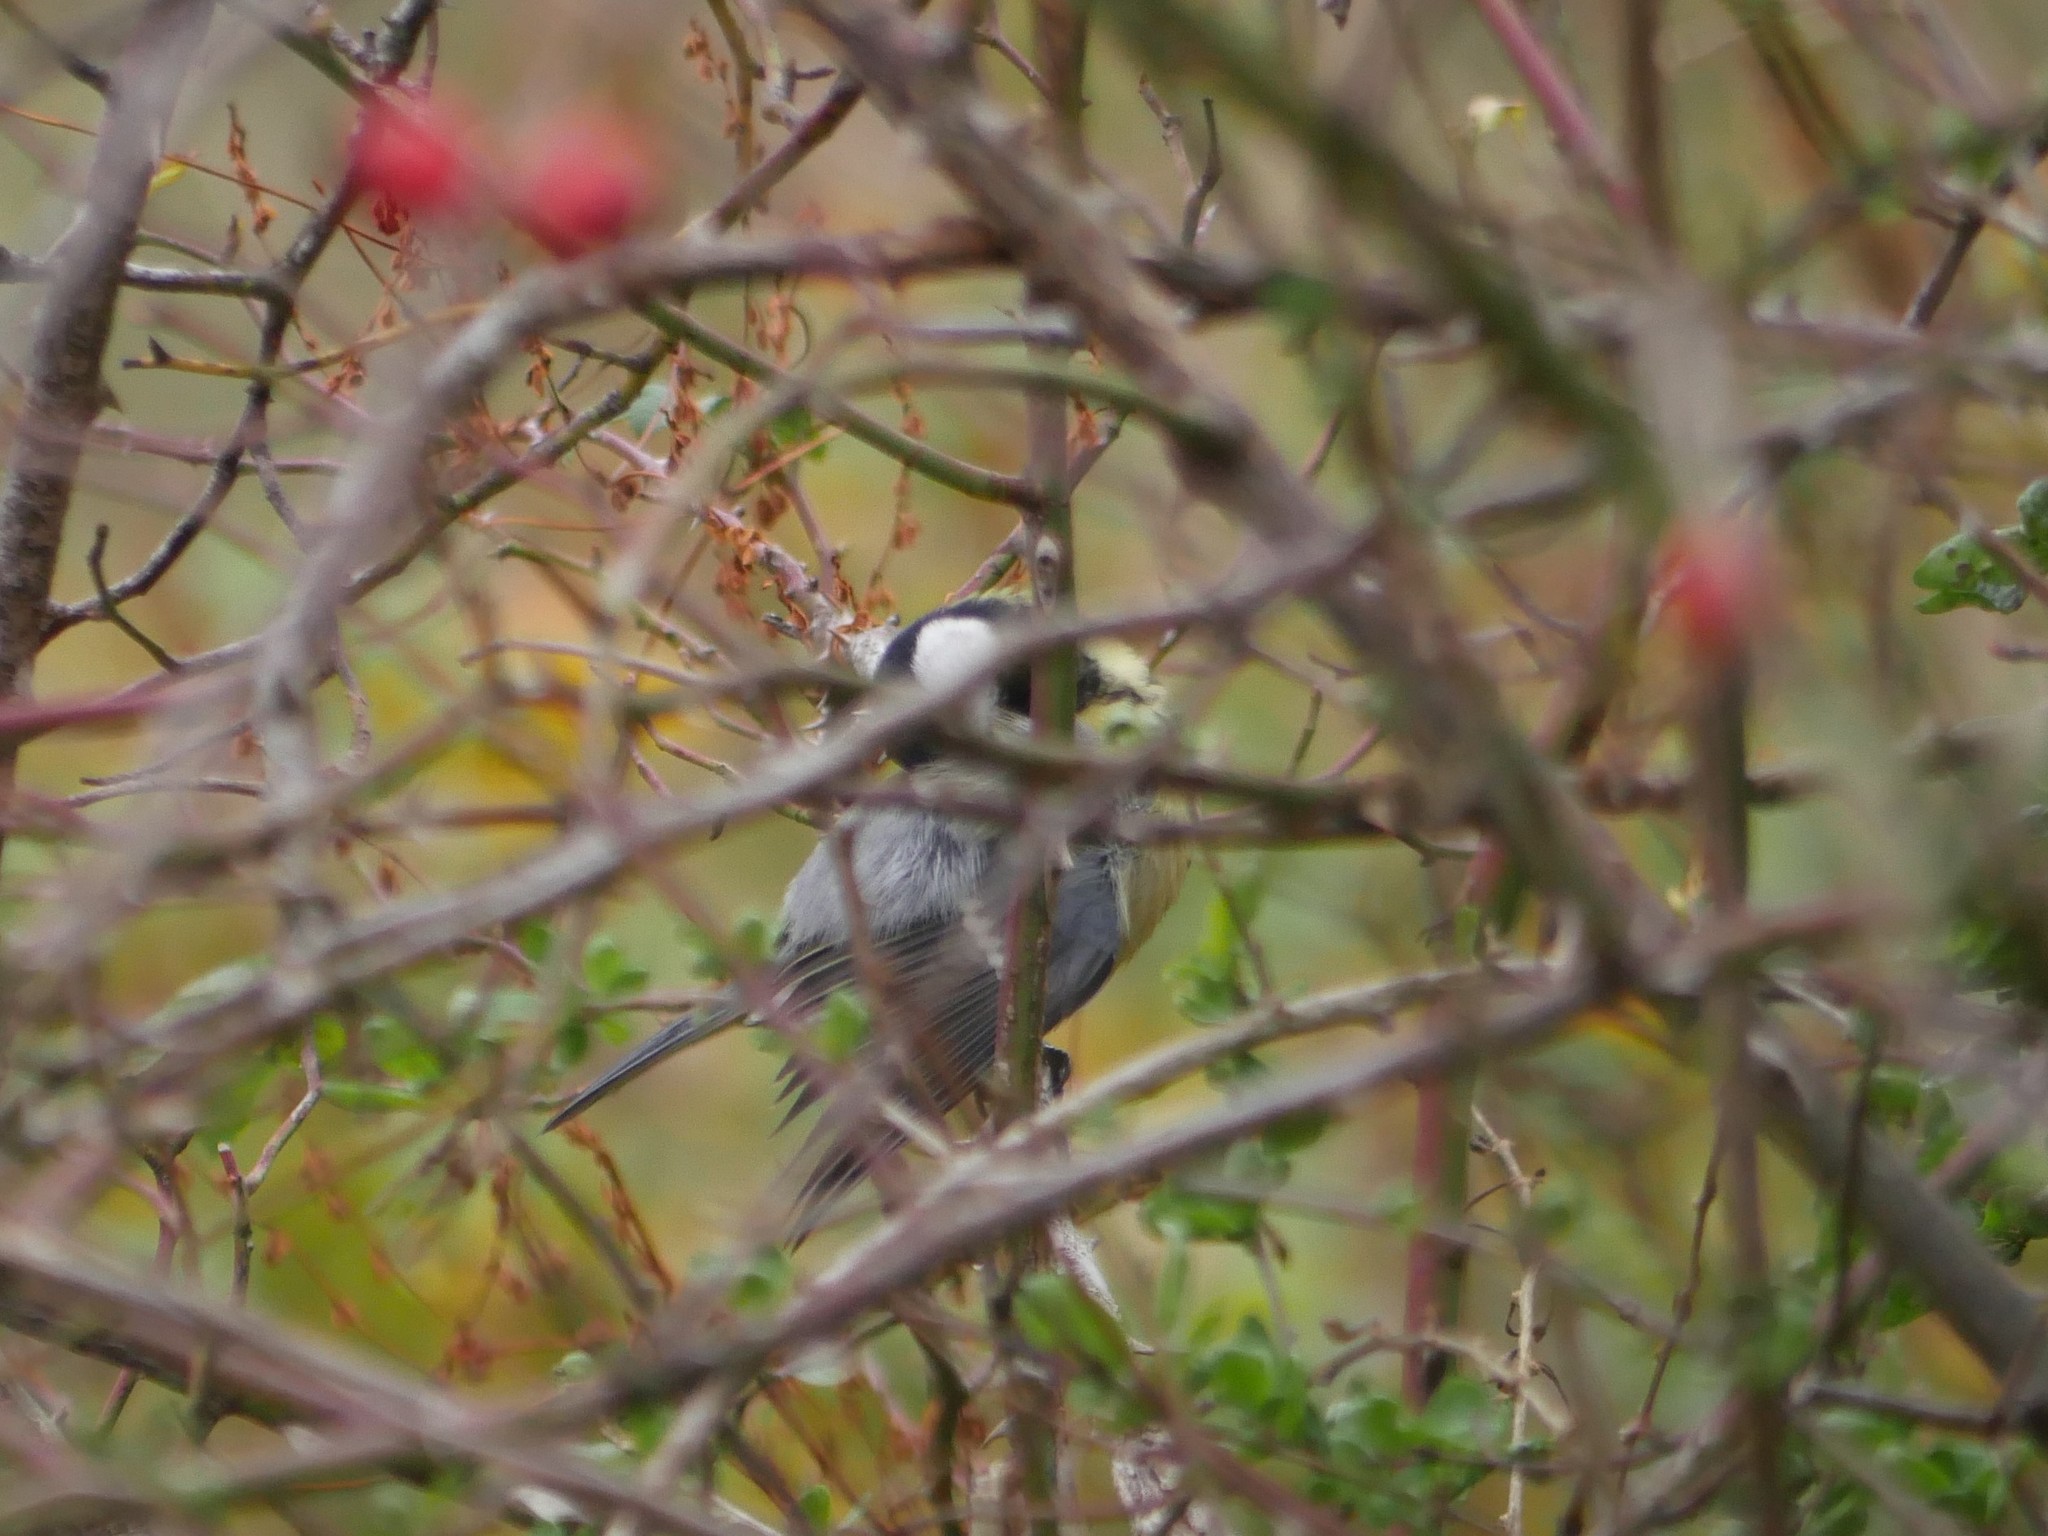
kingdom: Animalia
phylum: Chordata
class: Aves
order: Passeriformes
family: Paridae
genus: Parus
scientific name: Parus major
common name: Great tit
